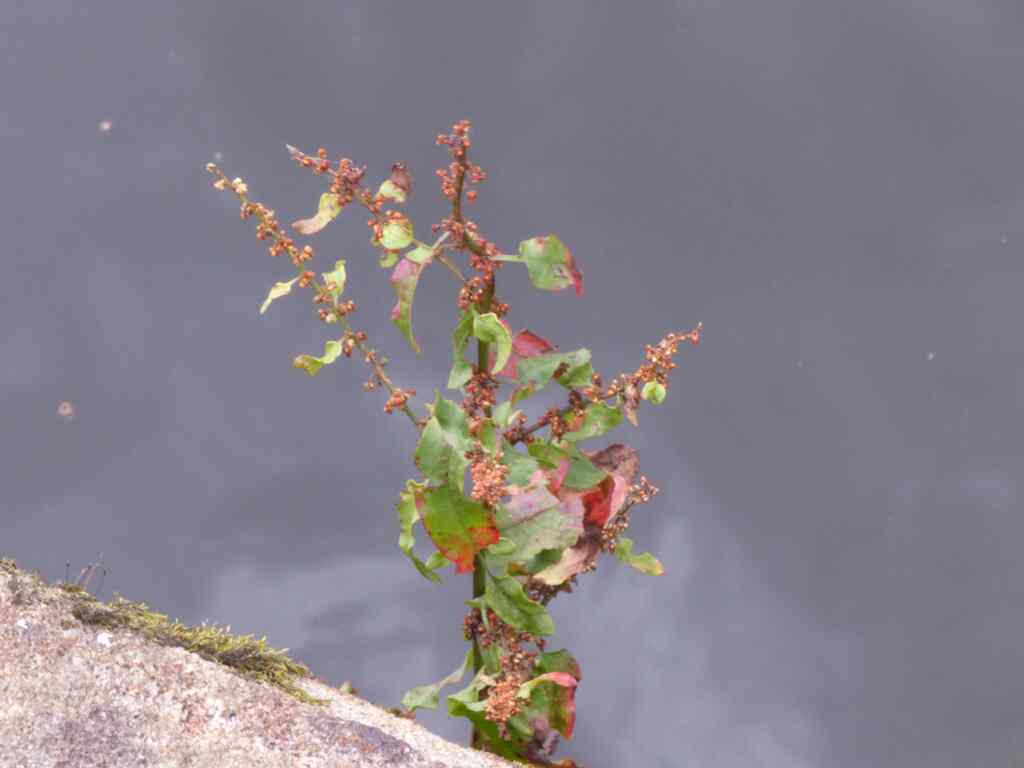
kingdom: Plantae
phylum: Tracheophyta
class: Magnoliopsida
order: Caryophyllales
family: Polygonaceae
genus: Rumex
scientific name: Rumex conglomeratus
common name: Clustered dock
